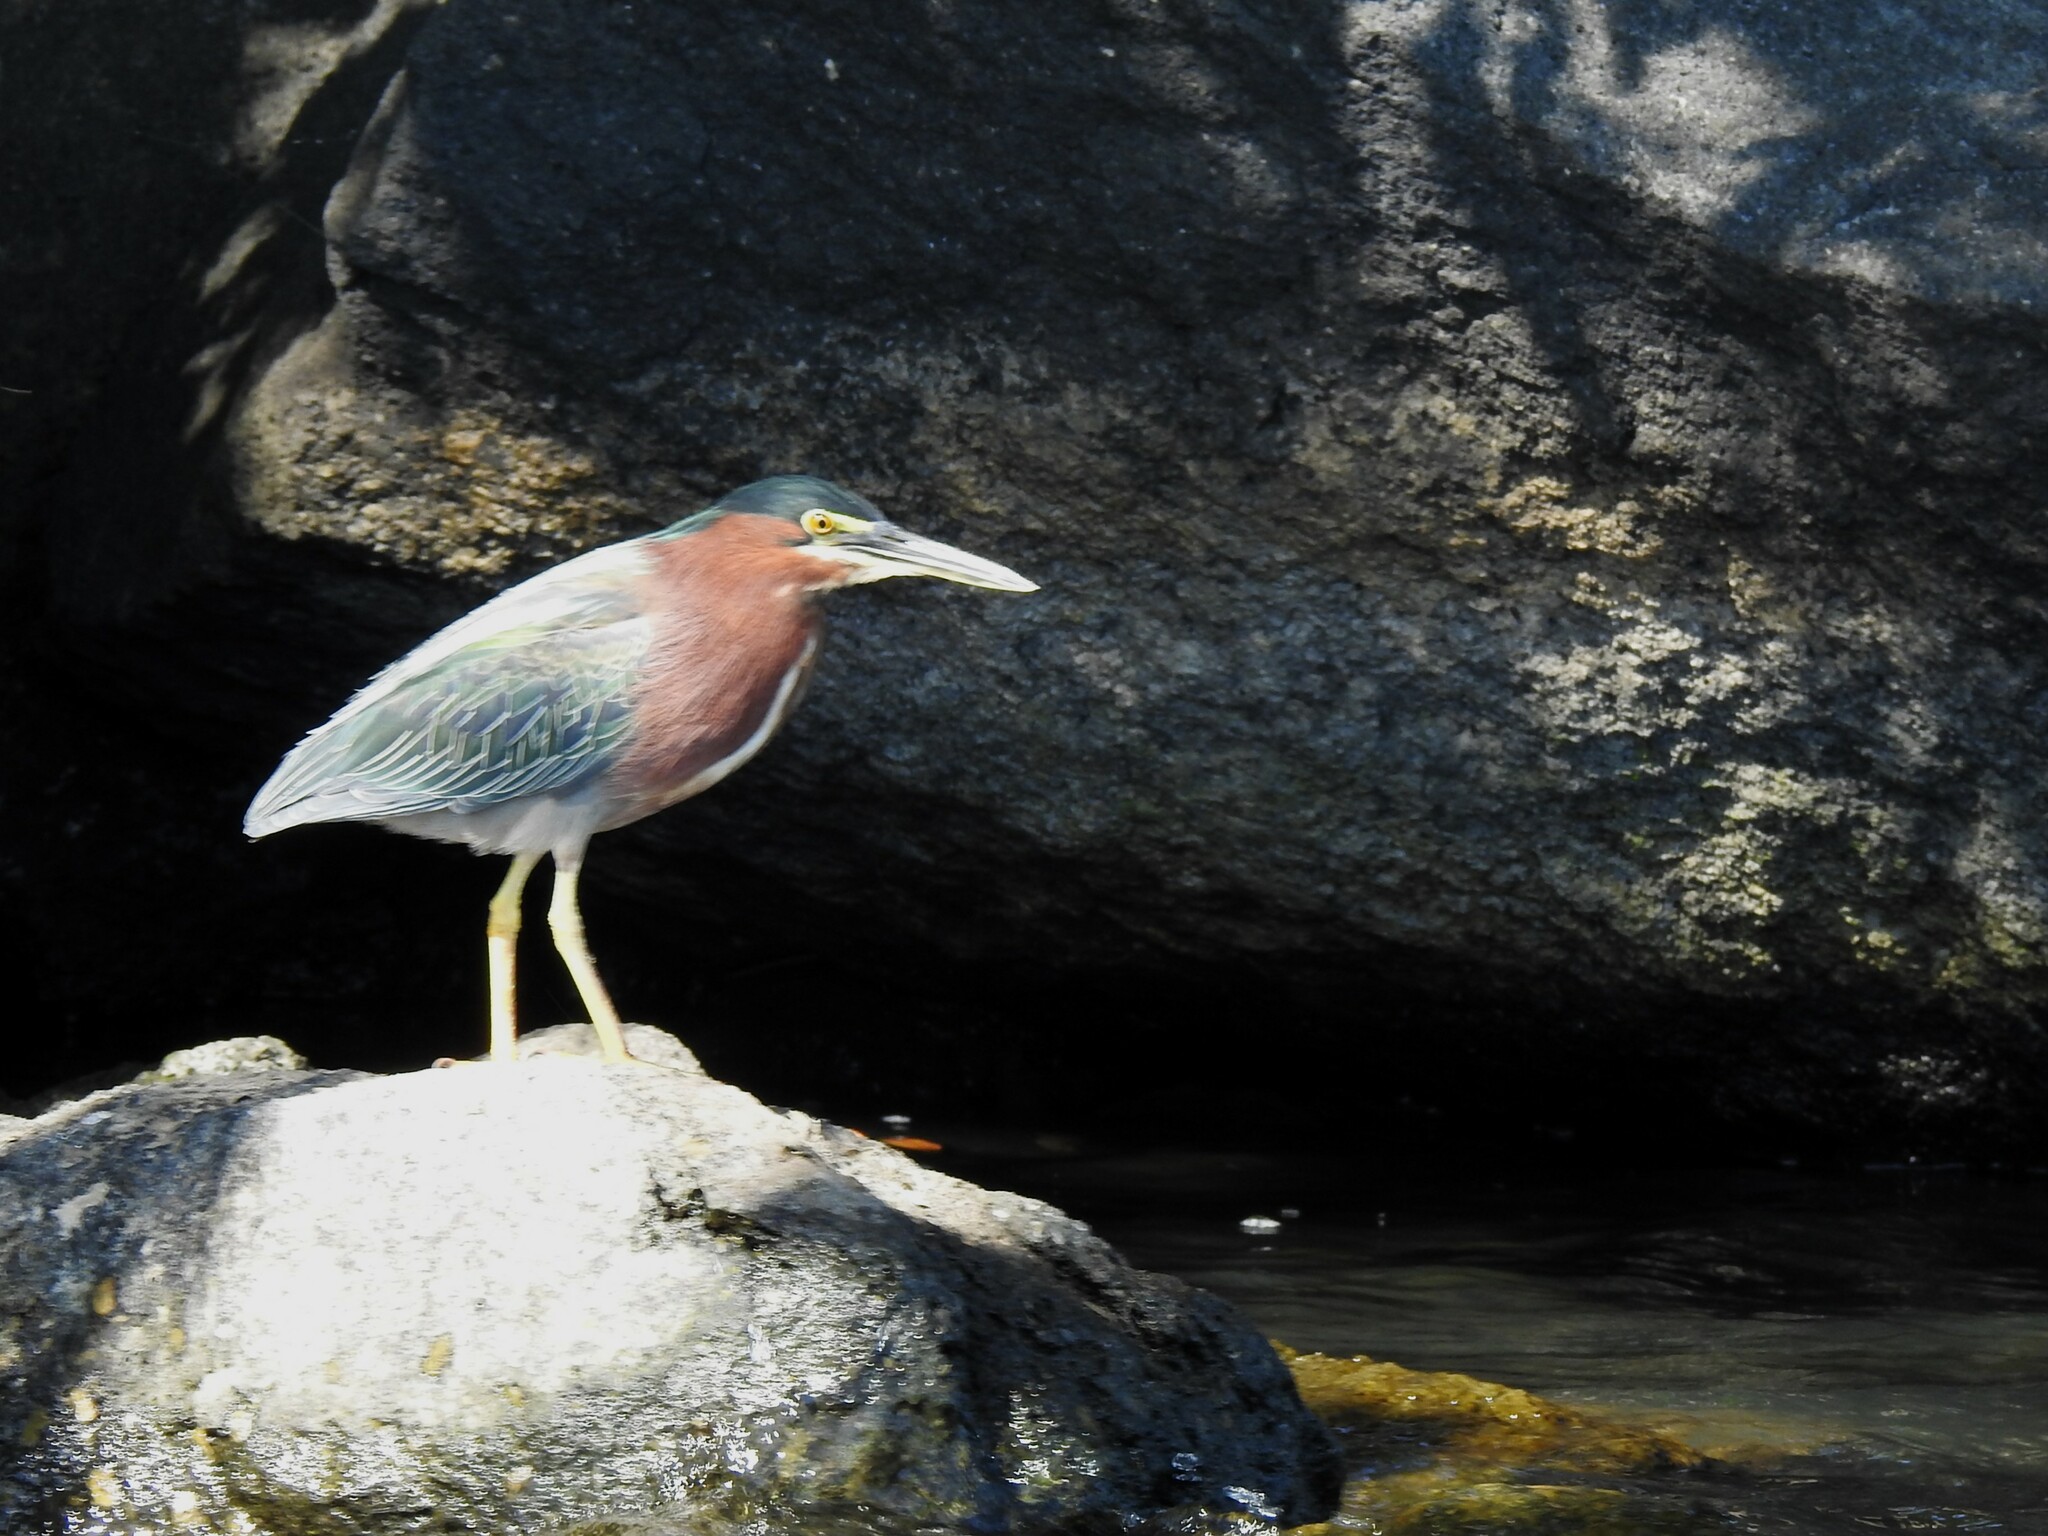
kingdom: Animalia
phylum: Chordata
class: Aves
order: Pelecaniformes
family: Ardeidae
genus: Butorides
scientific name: Butorides virescens
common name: Green heron
